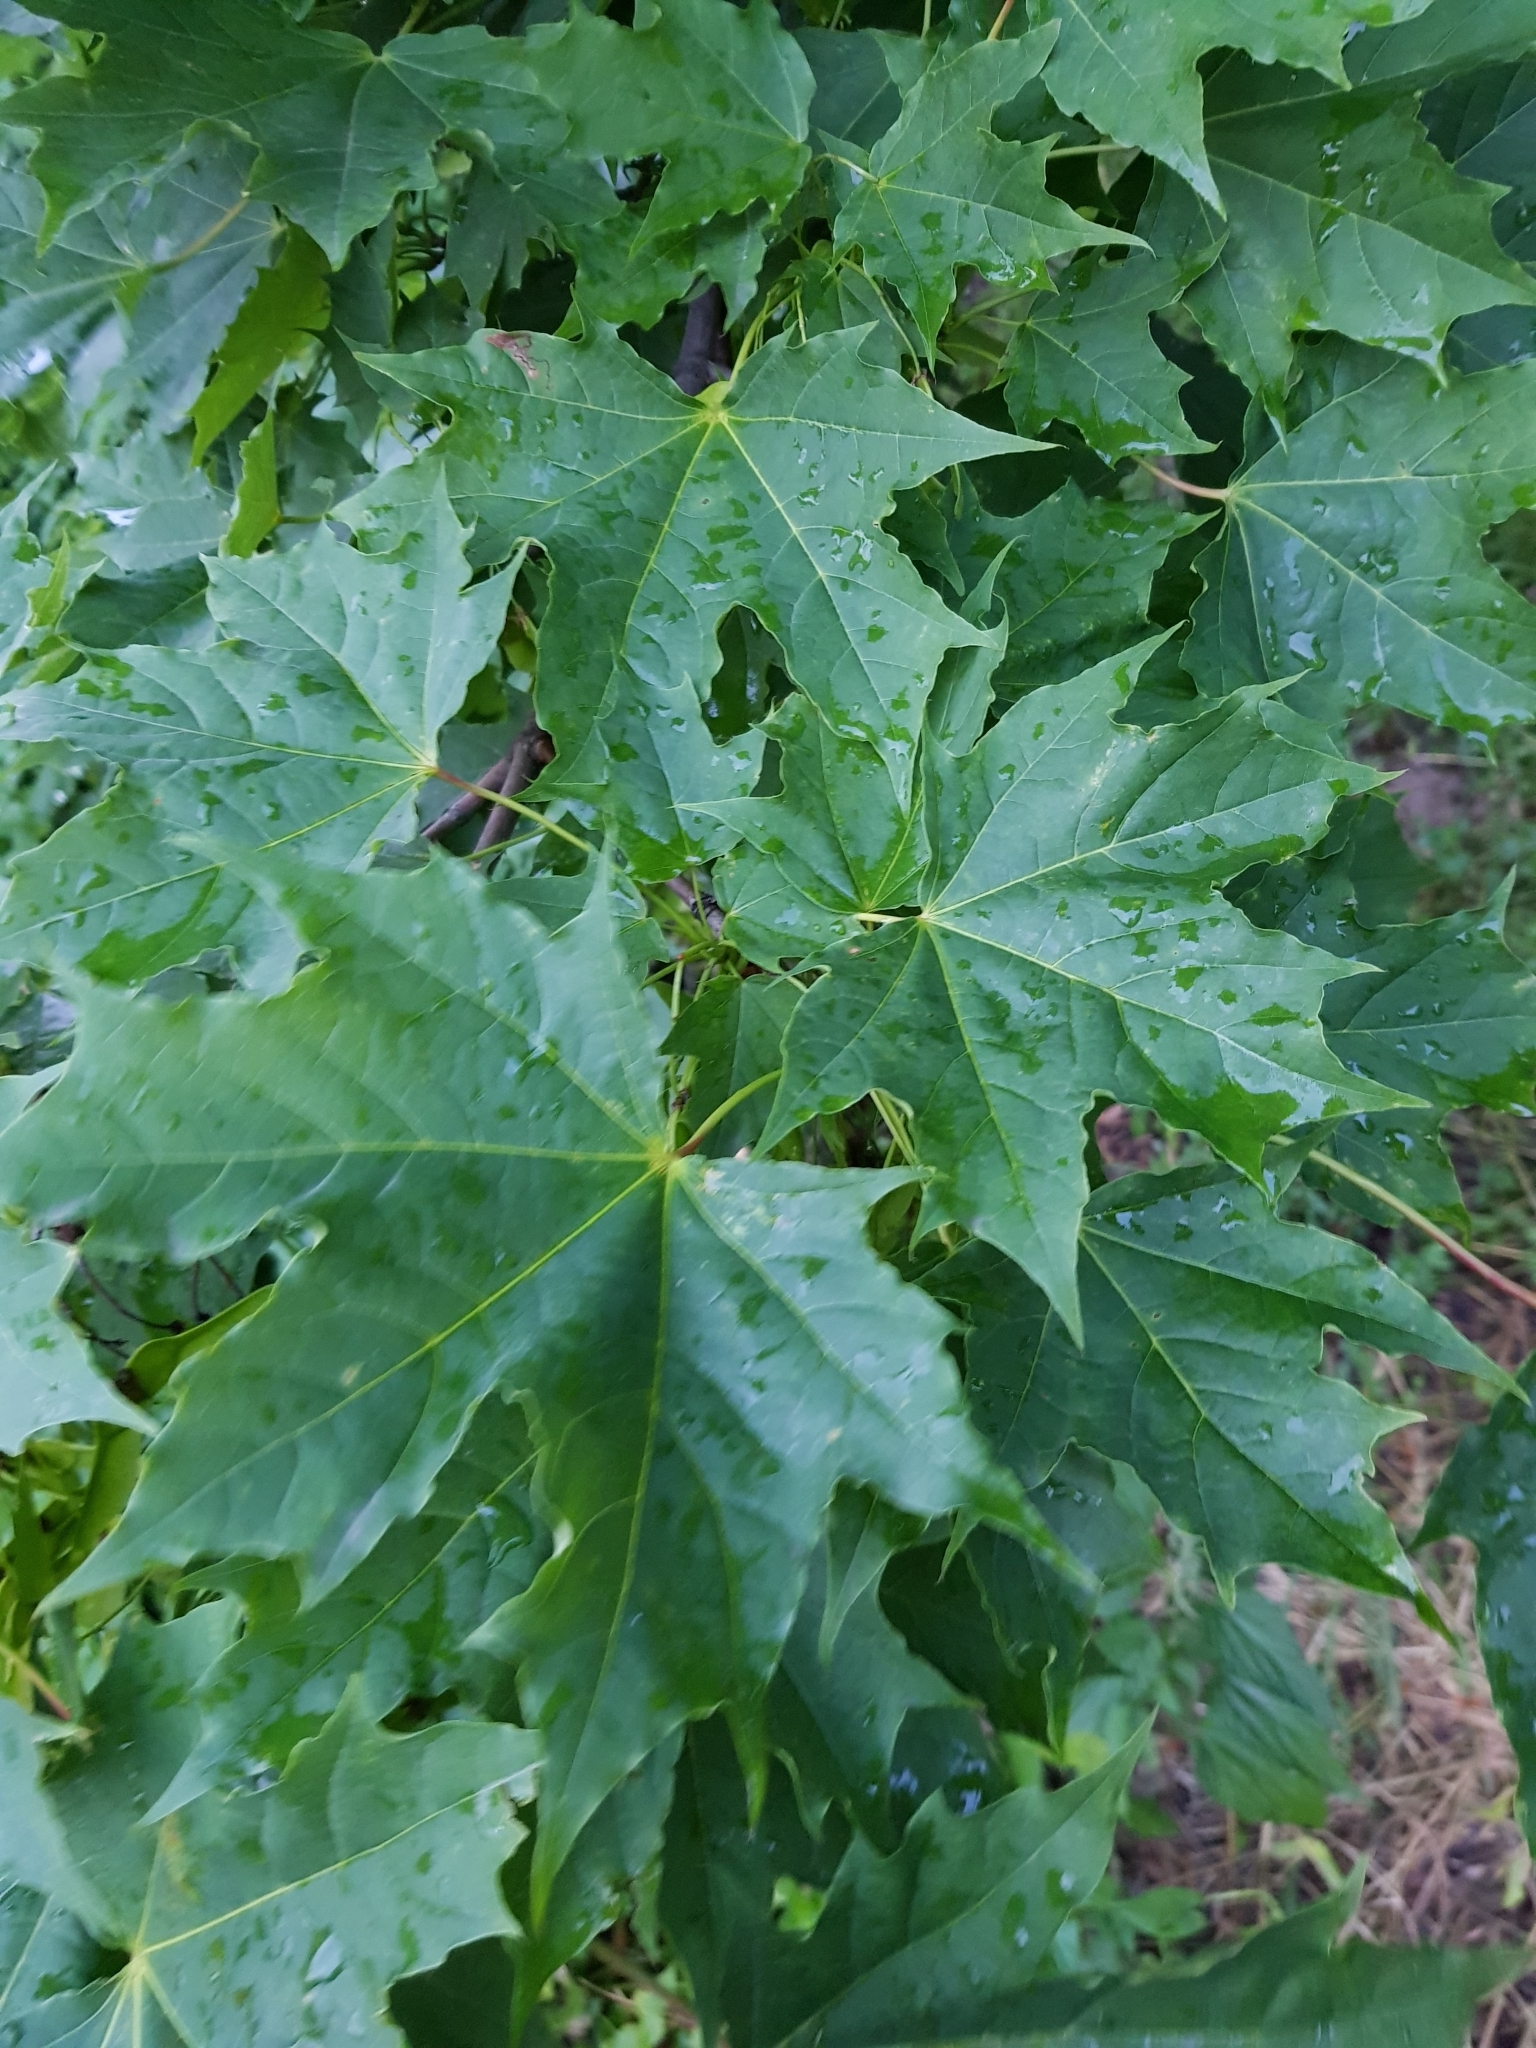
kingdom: Plantae
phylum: Tracheophyta
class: Magnoliopsida
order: Sapindales
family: Sapindaceae
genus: Acer
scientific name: Acer platanoides
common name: Norway maple
